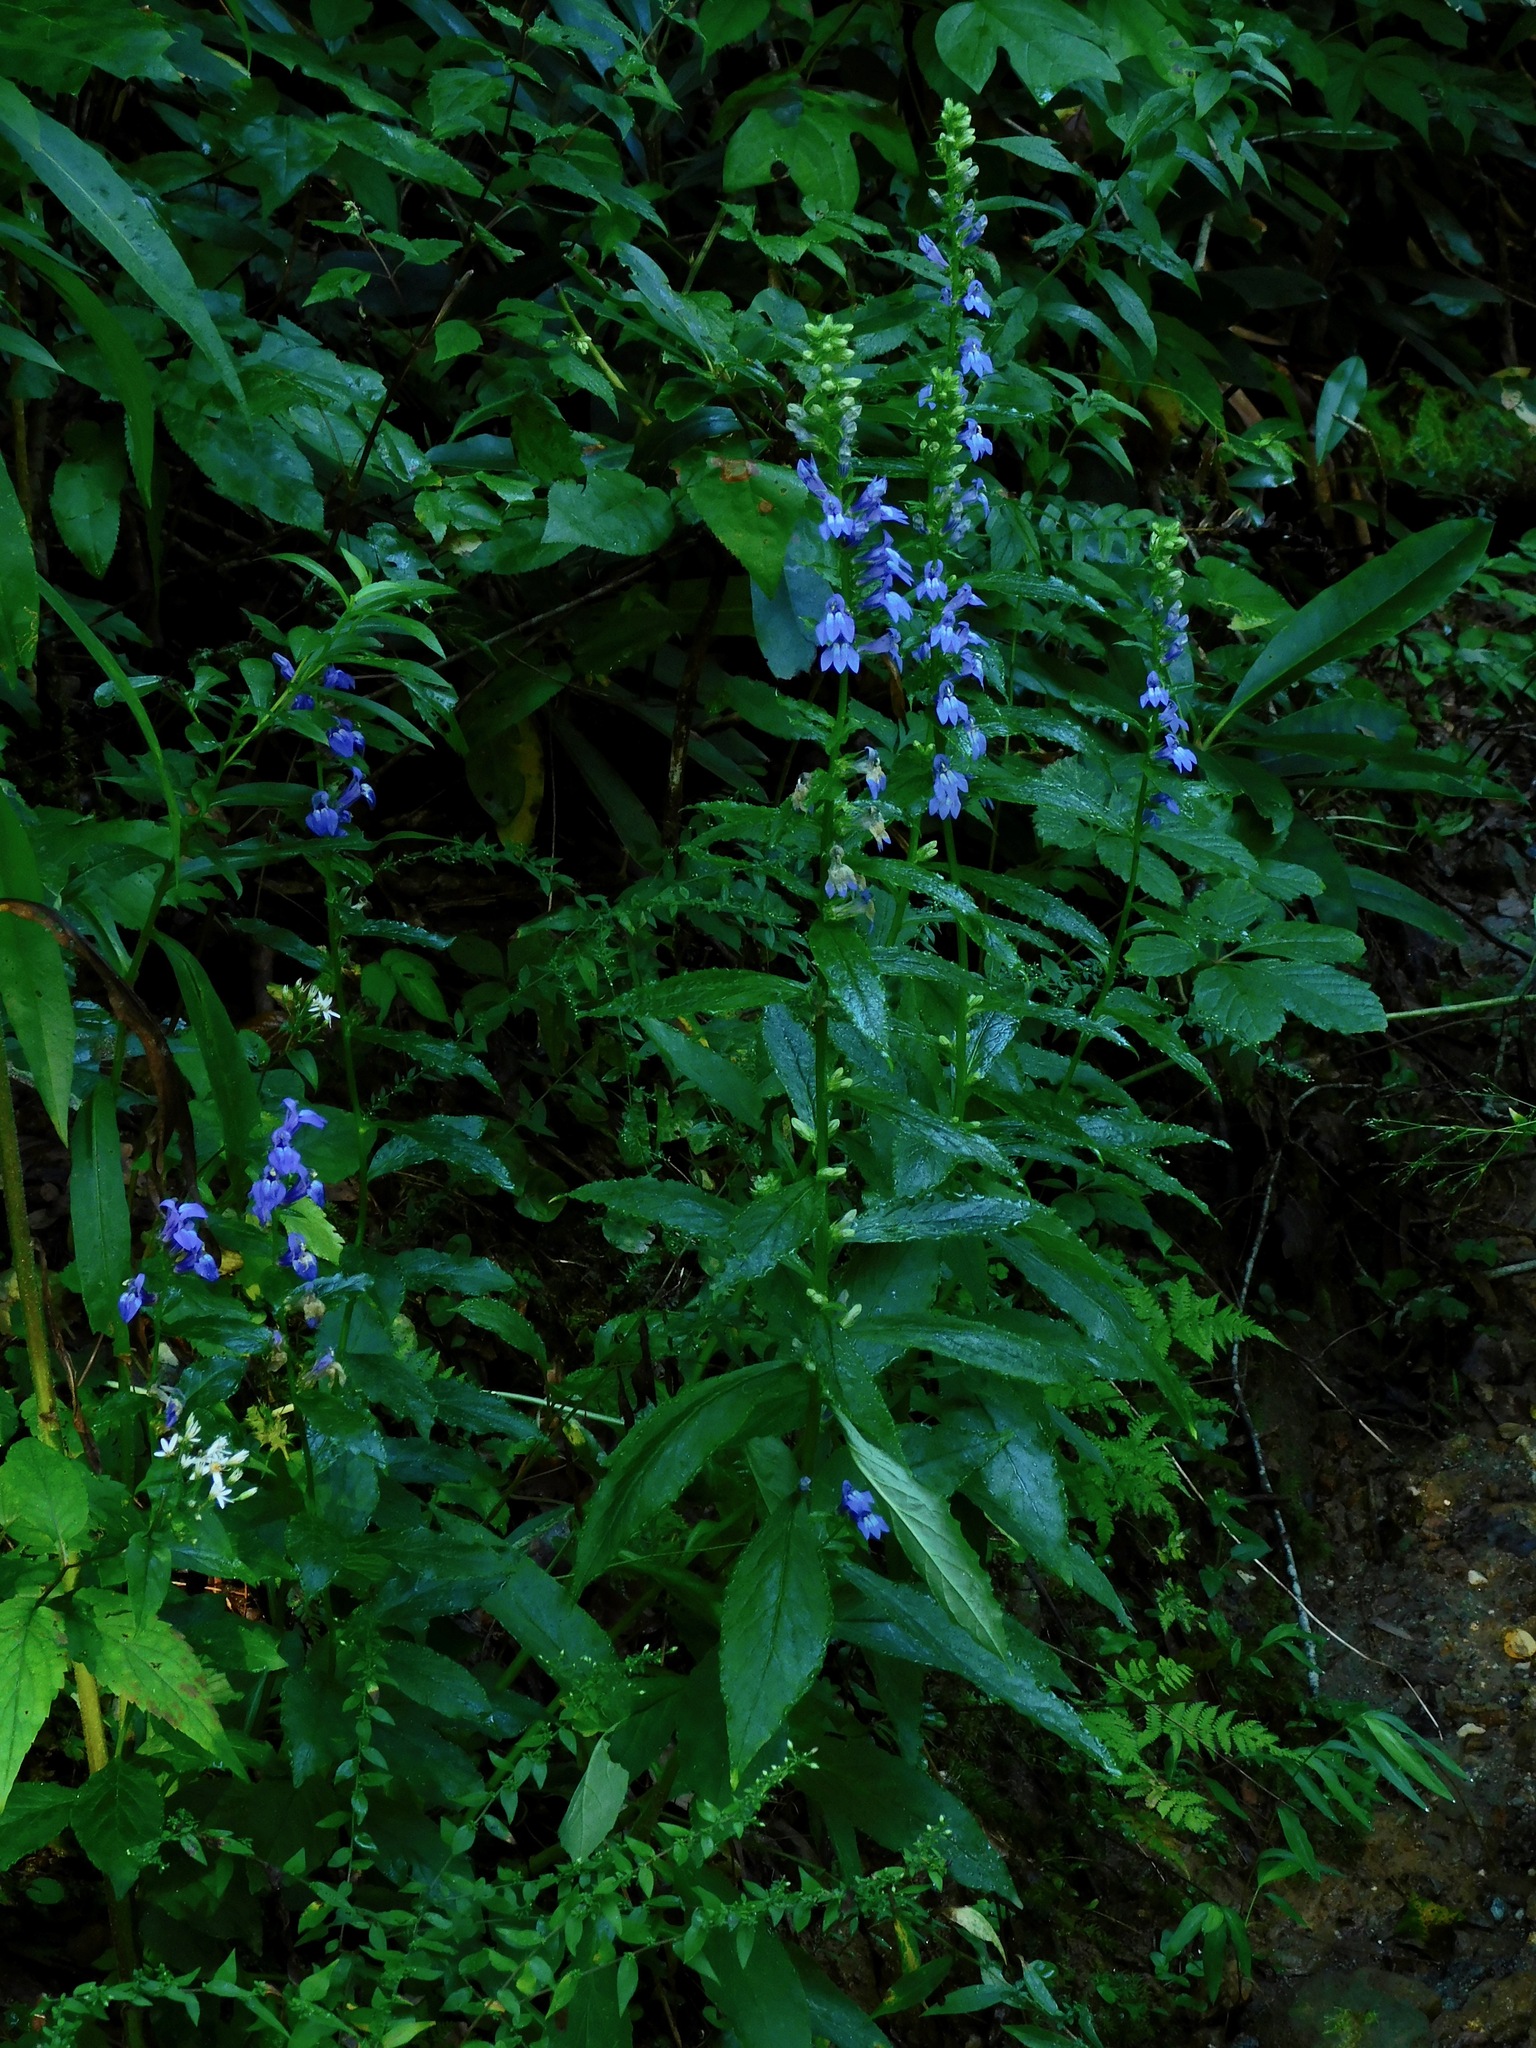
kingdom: Plantae
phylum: Tracheophyta
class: Magnoliopsida
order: Asterales
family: Campanulaceae
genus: Lobelia
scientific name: Lobelia siphilitica
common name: Great lobelia
